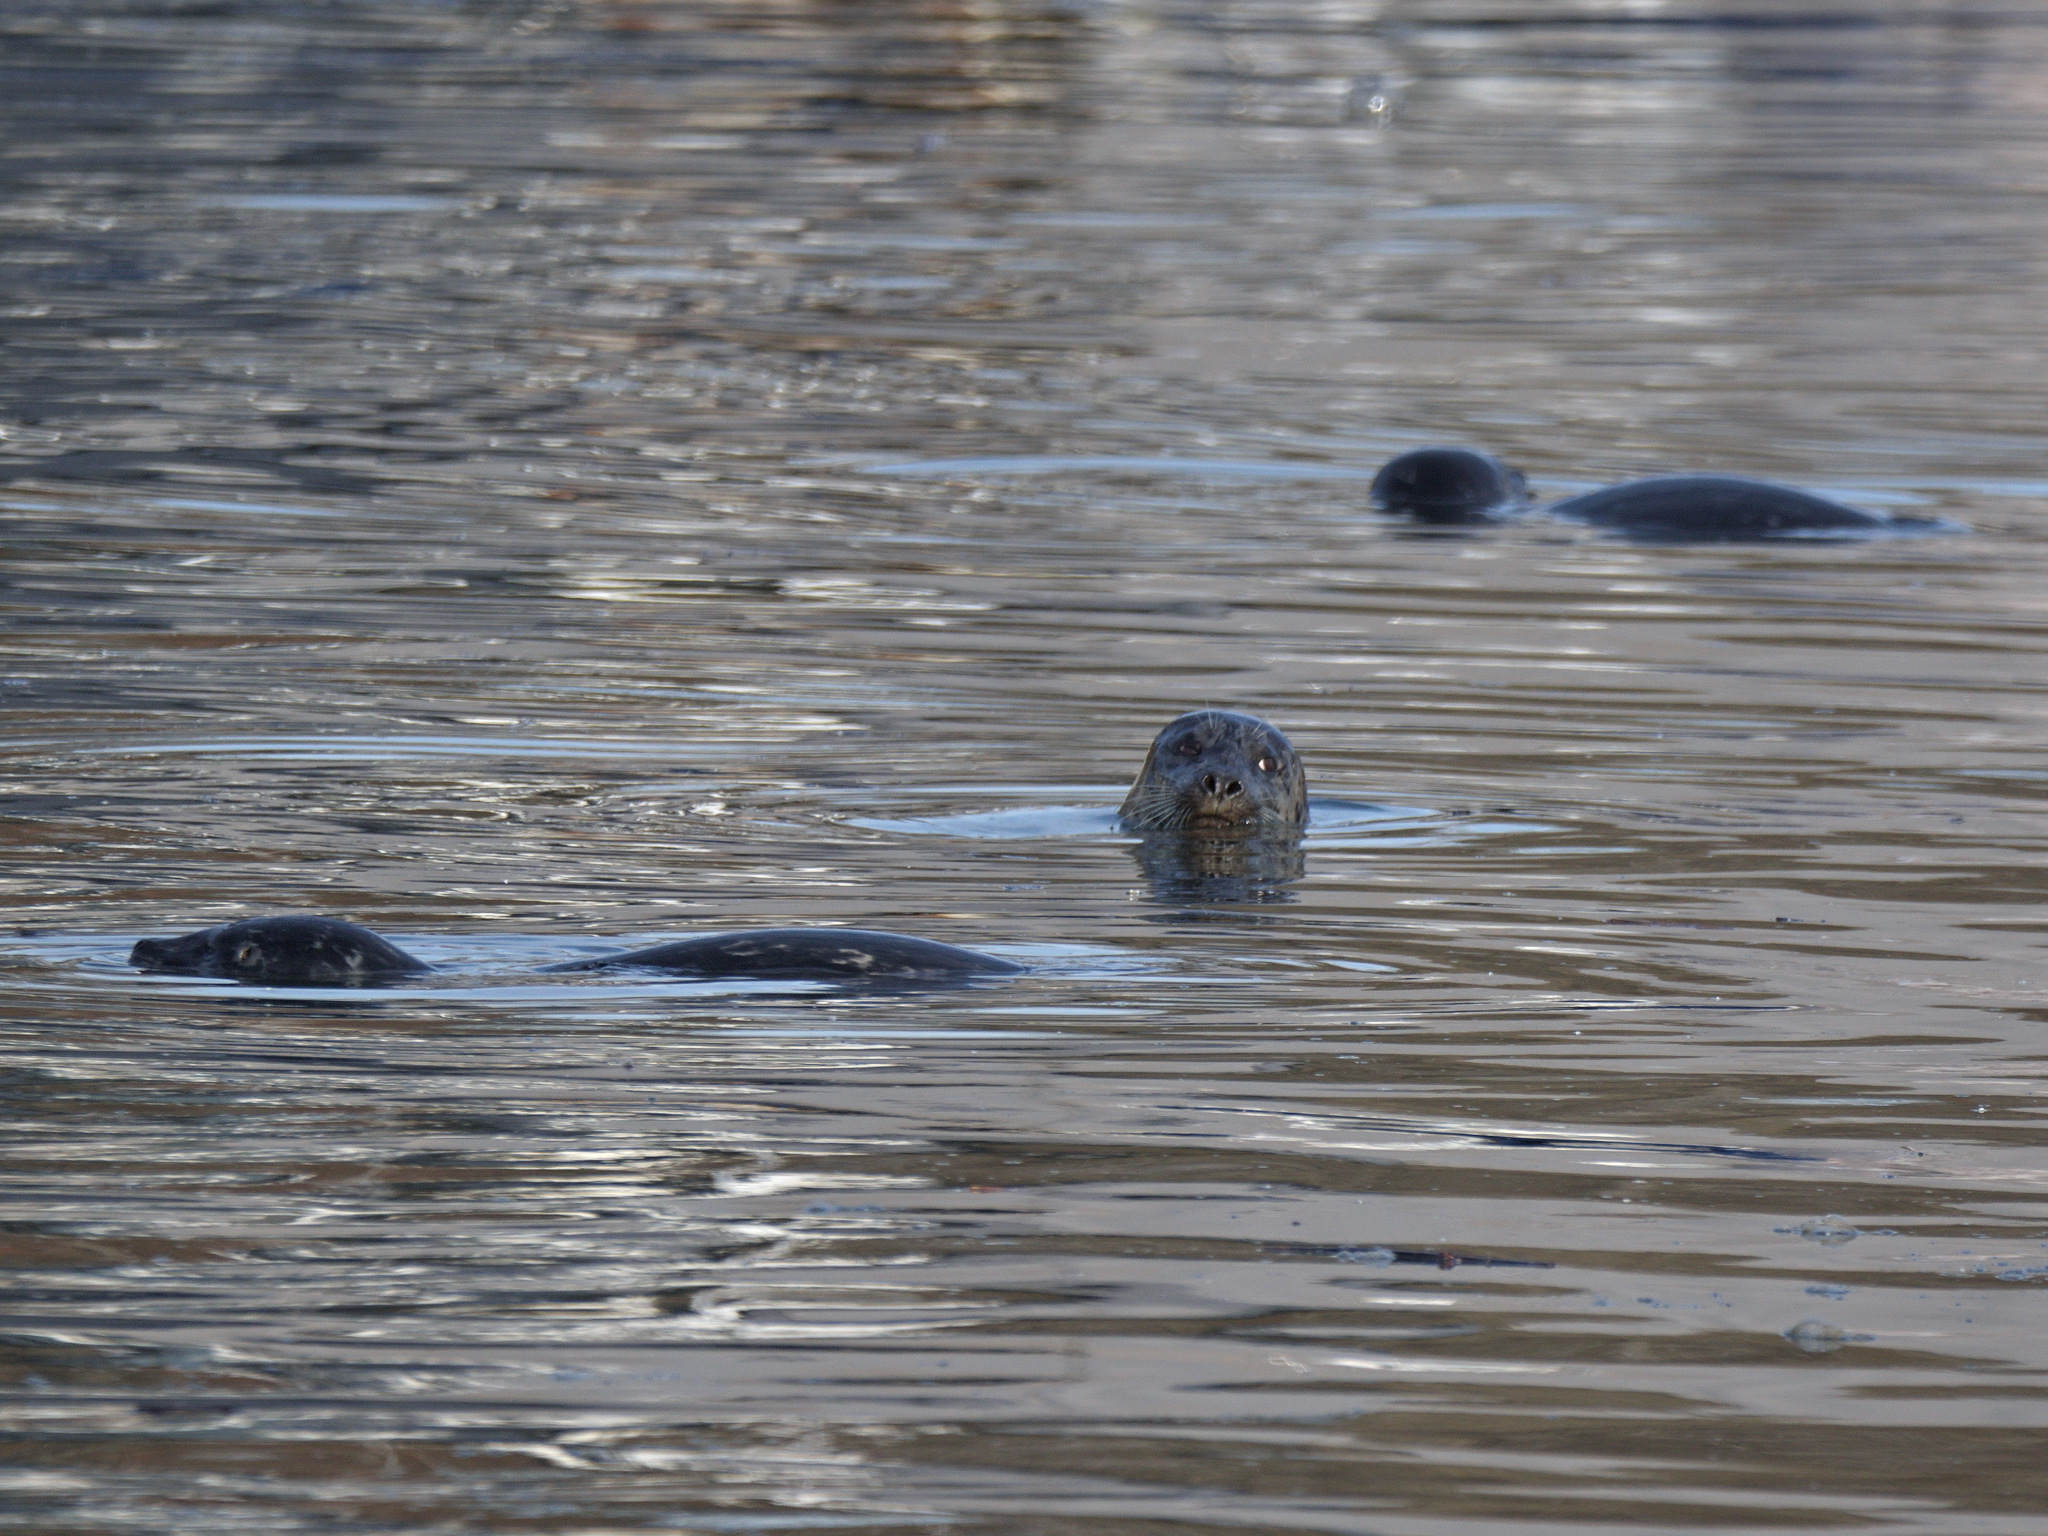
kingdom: Animalia
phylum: Chordata
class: Mammalia
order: Carnivora
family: Phocidae
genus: Phoca
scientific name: Phoca vitulina
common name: Harbor seal
